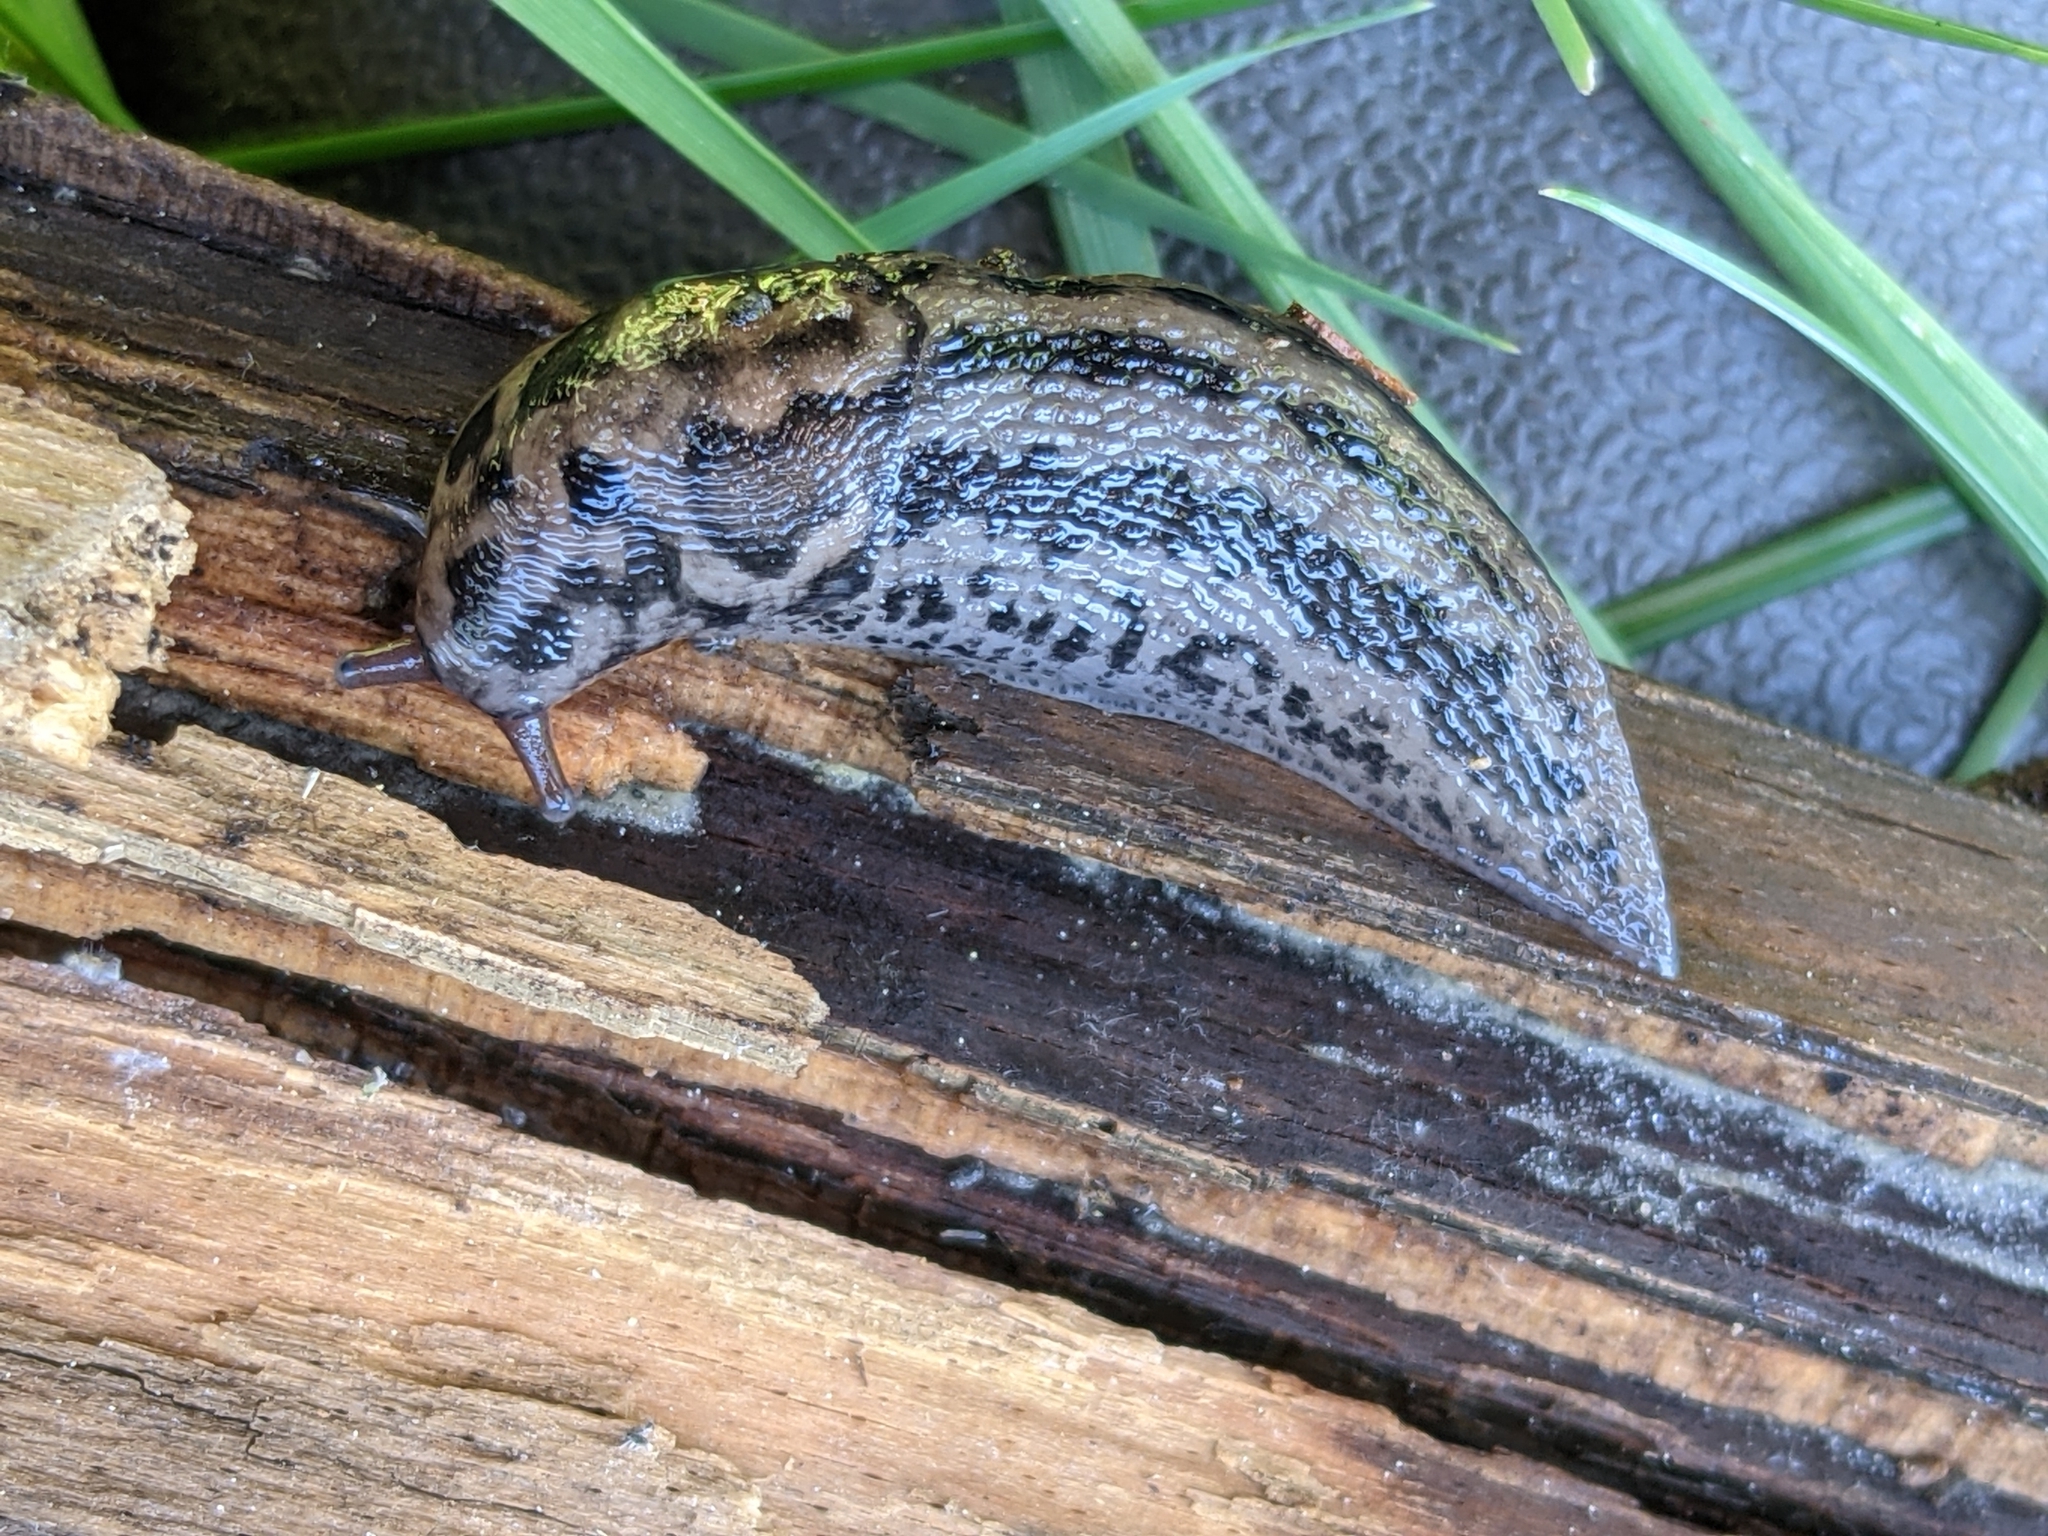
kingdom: Animalia
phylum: Mollusca
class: Gastropoda
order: Stylommatophora
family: Limacidae
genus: Limax
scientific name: Limax maximus
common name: Great grey slug
